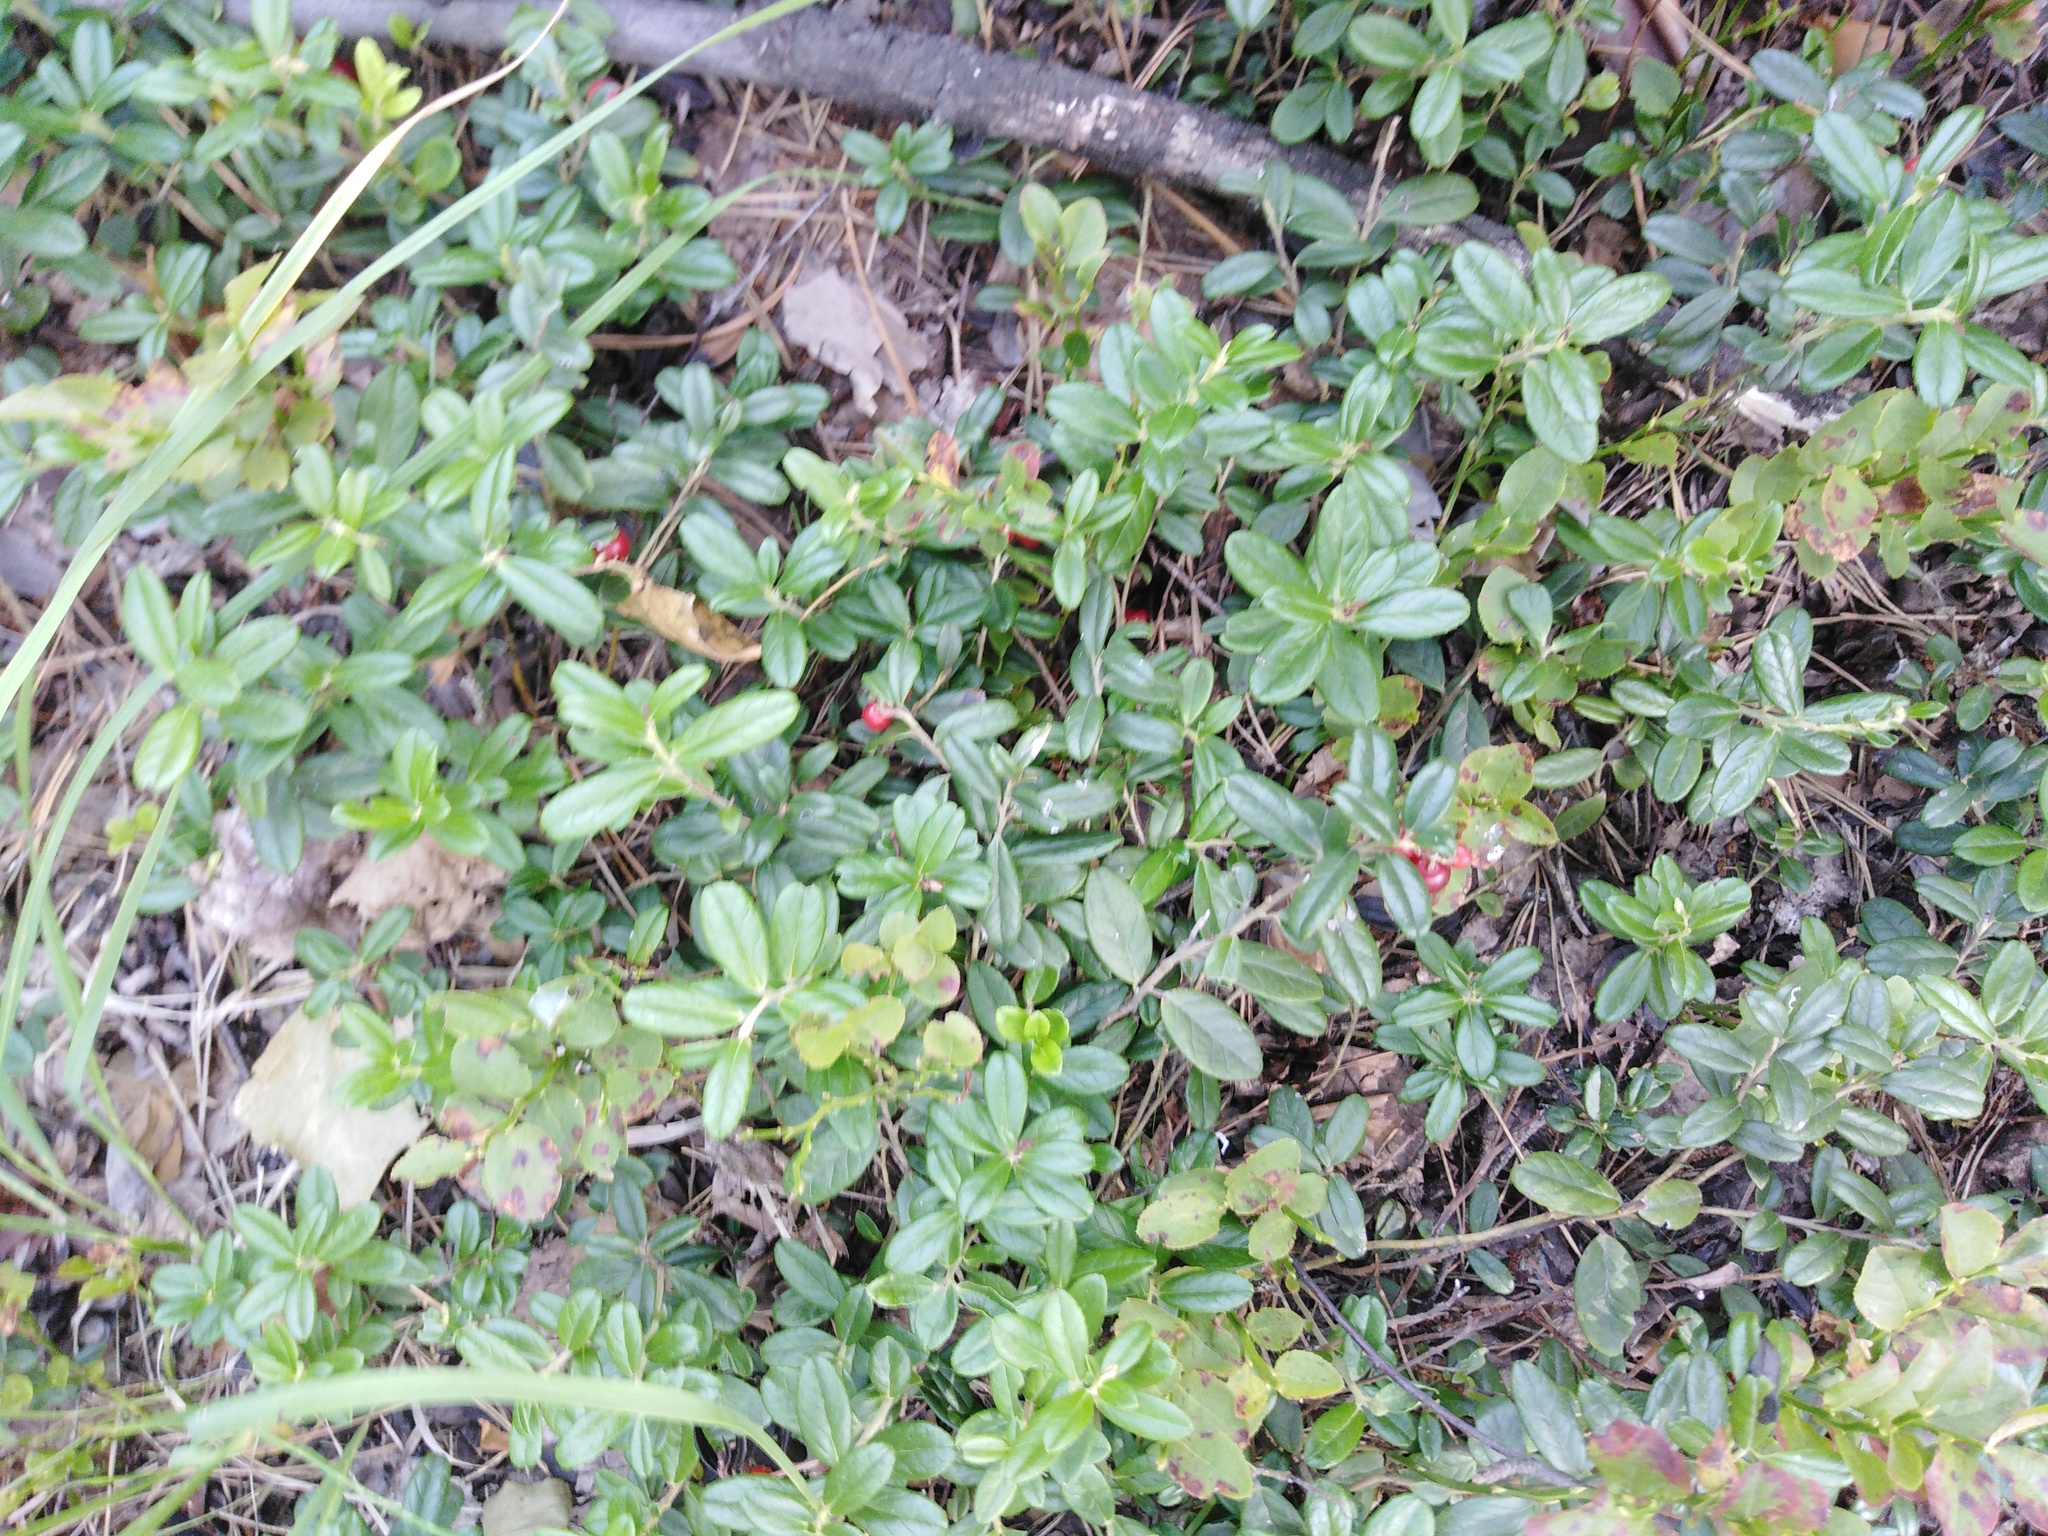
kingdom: Plantae
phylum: Tracheophyta
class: Magnoliopsida
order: Ericales
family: Ericaceae
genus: Vaccinium
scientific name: Vaccinium vitis-idaea
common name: Cowberry
